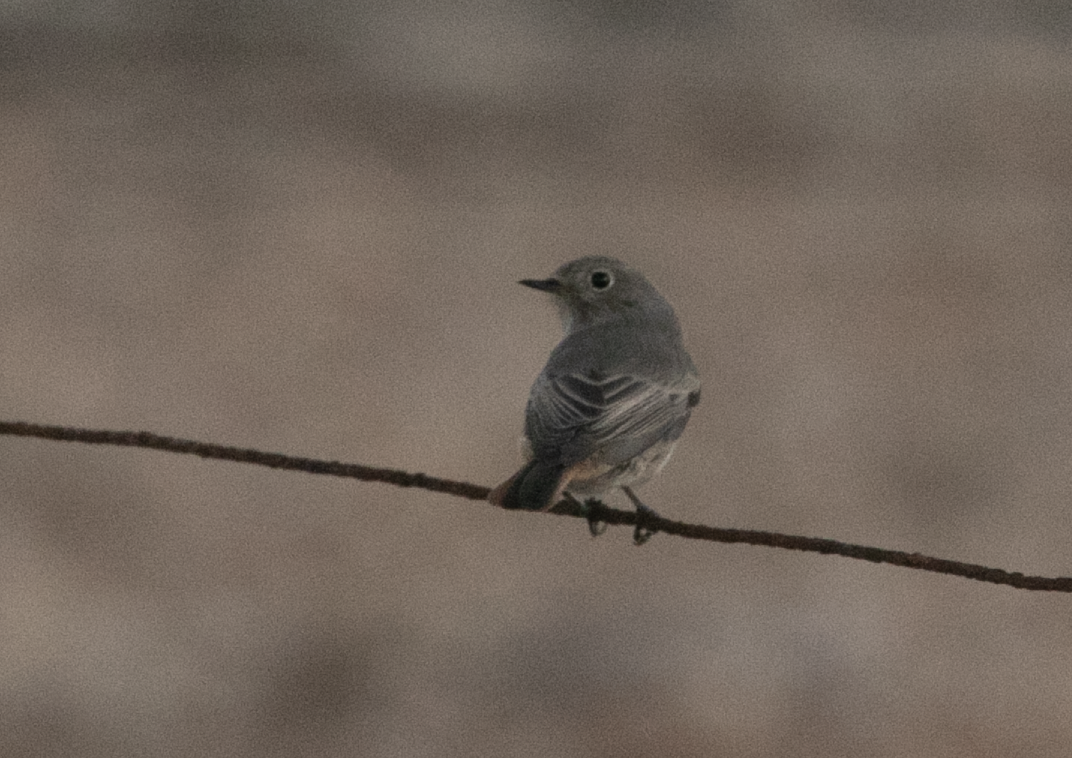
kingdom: Animalia
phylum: Chordata
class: Aves
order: Passeriformes
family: Muscicapidae
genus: Phoenicurus
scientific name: Phoenicurus ochruros
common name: Black redstart
